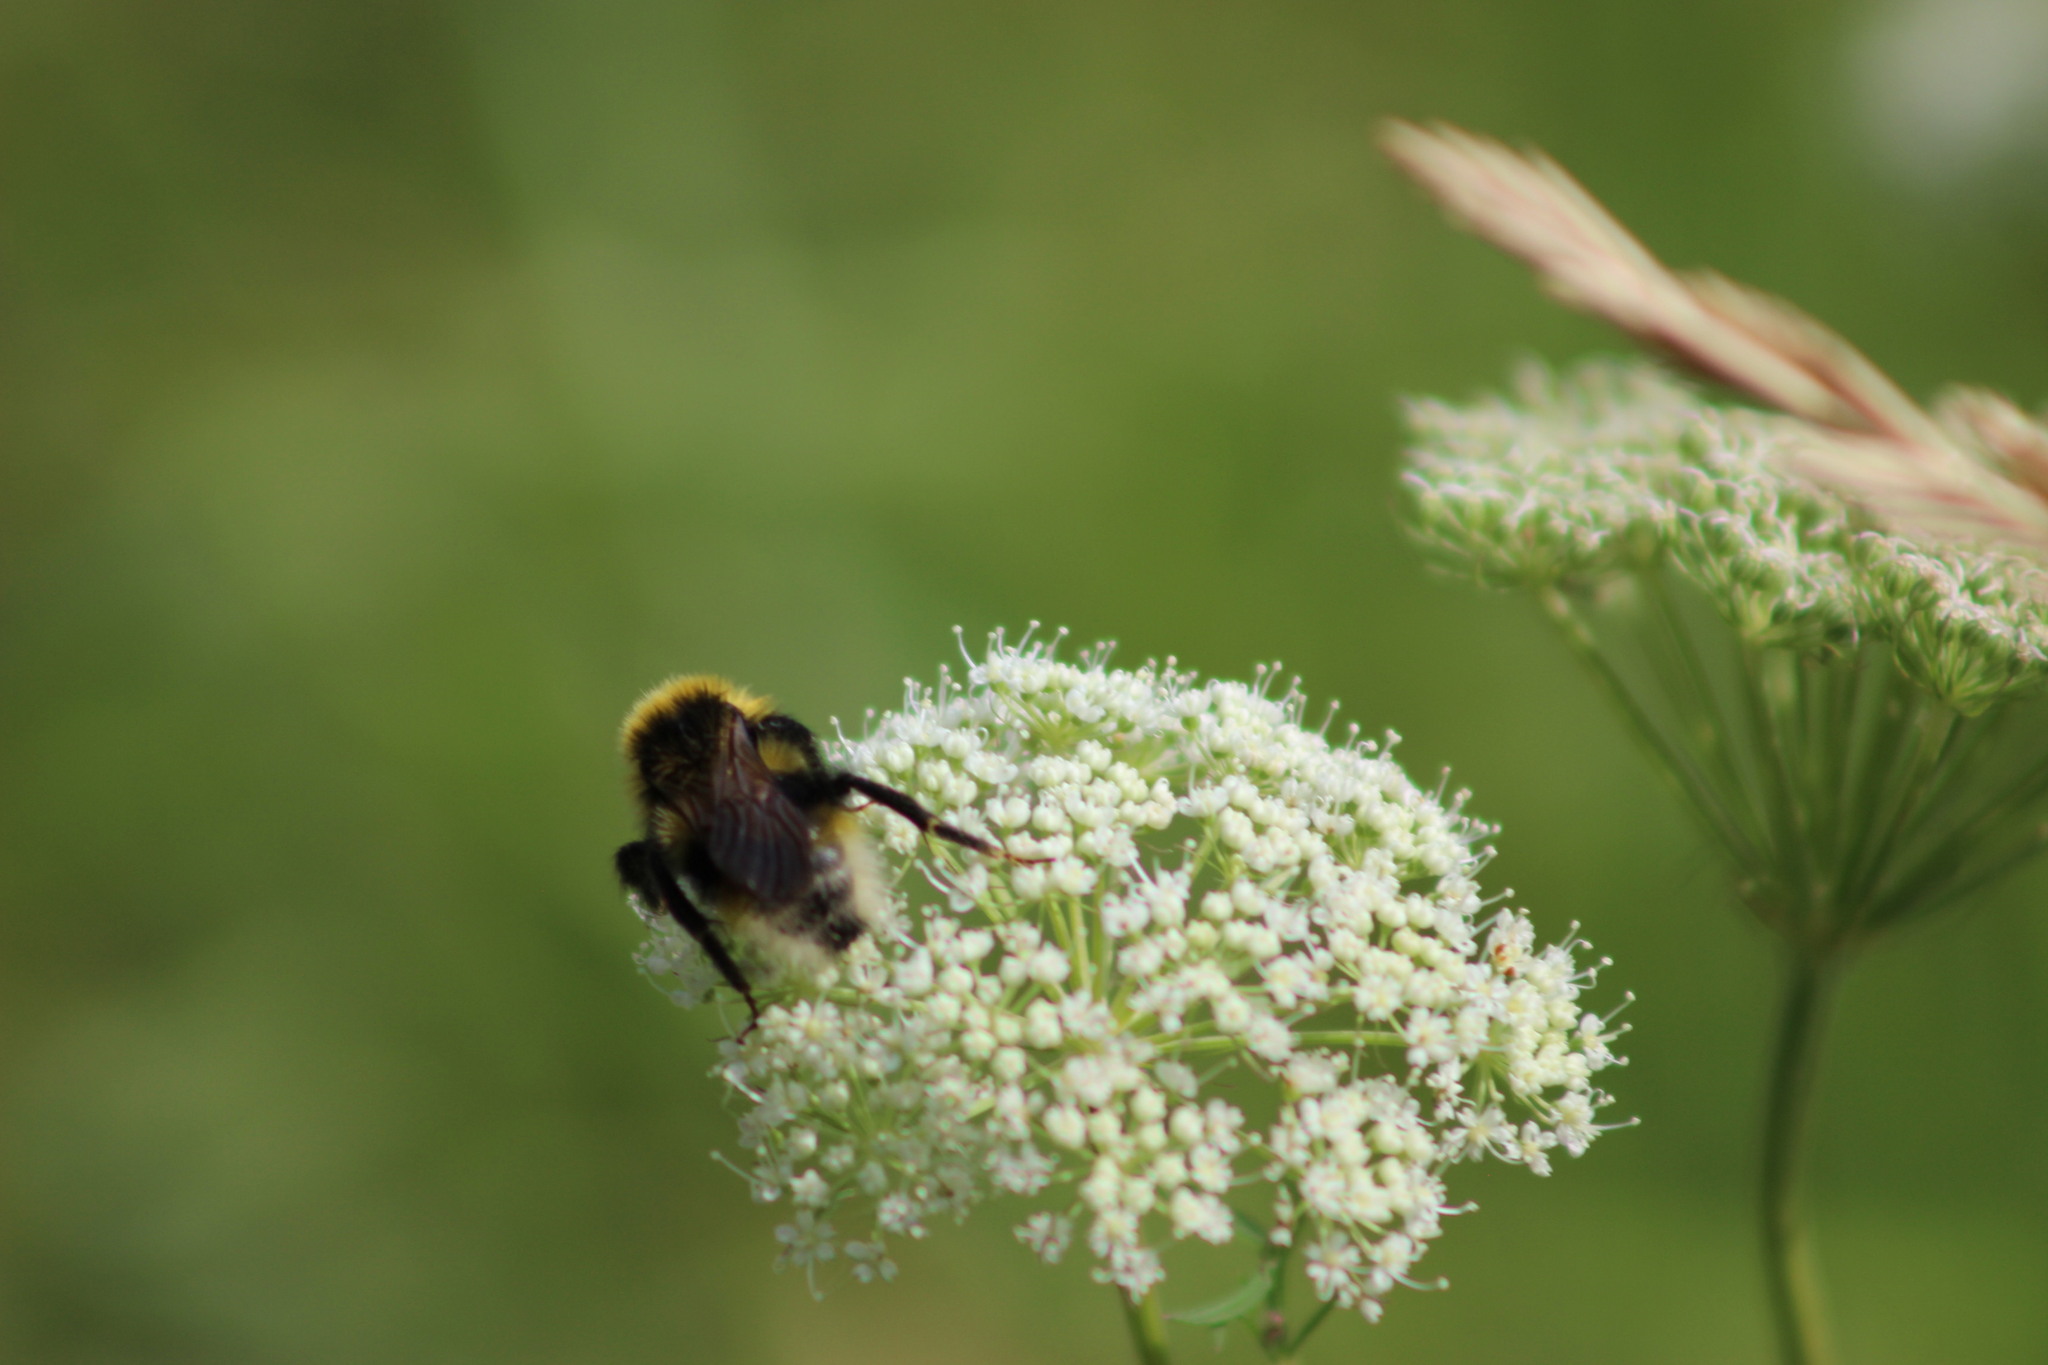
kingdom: Animalia
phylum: Arthropoda
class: Insecta
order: Hymenoptera
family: Apidae
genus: Bombus
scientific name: Bombus bohemicus
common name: Gypsy cuckoo bee
